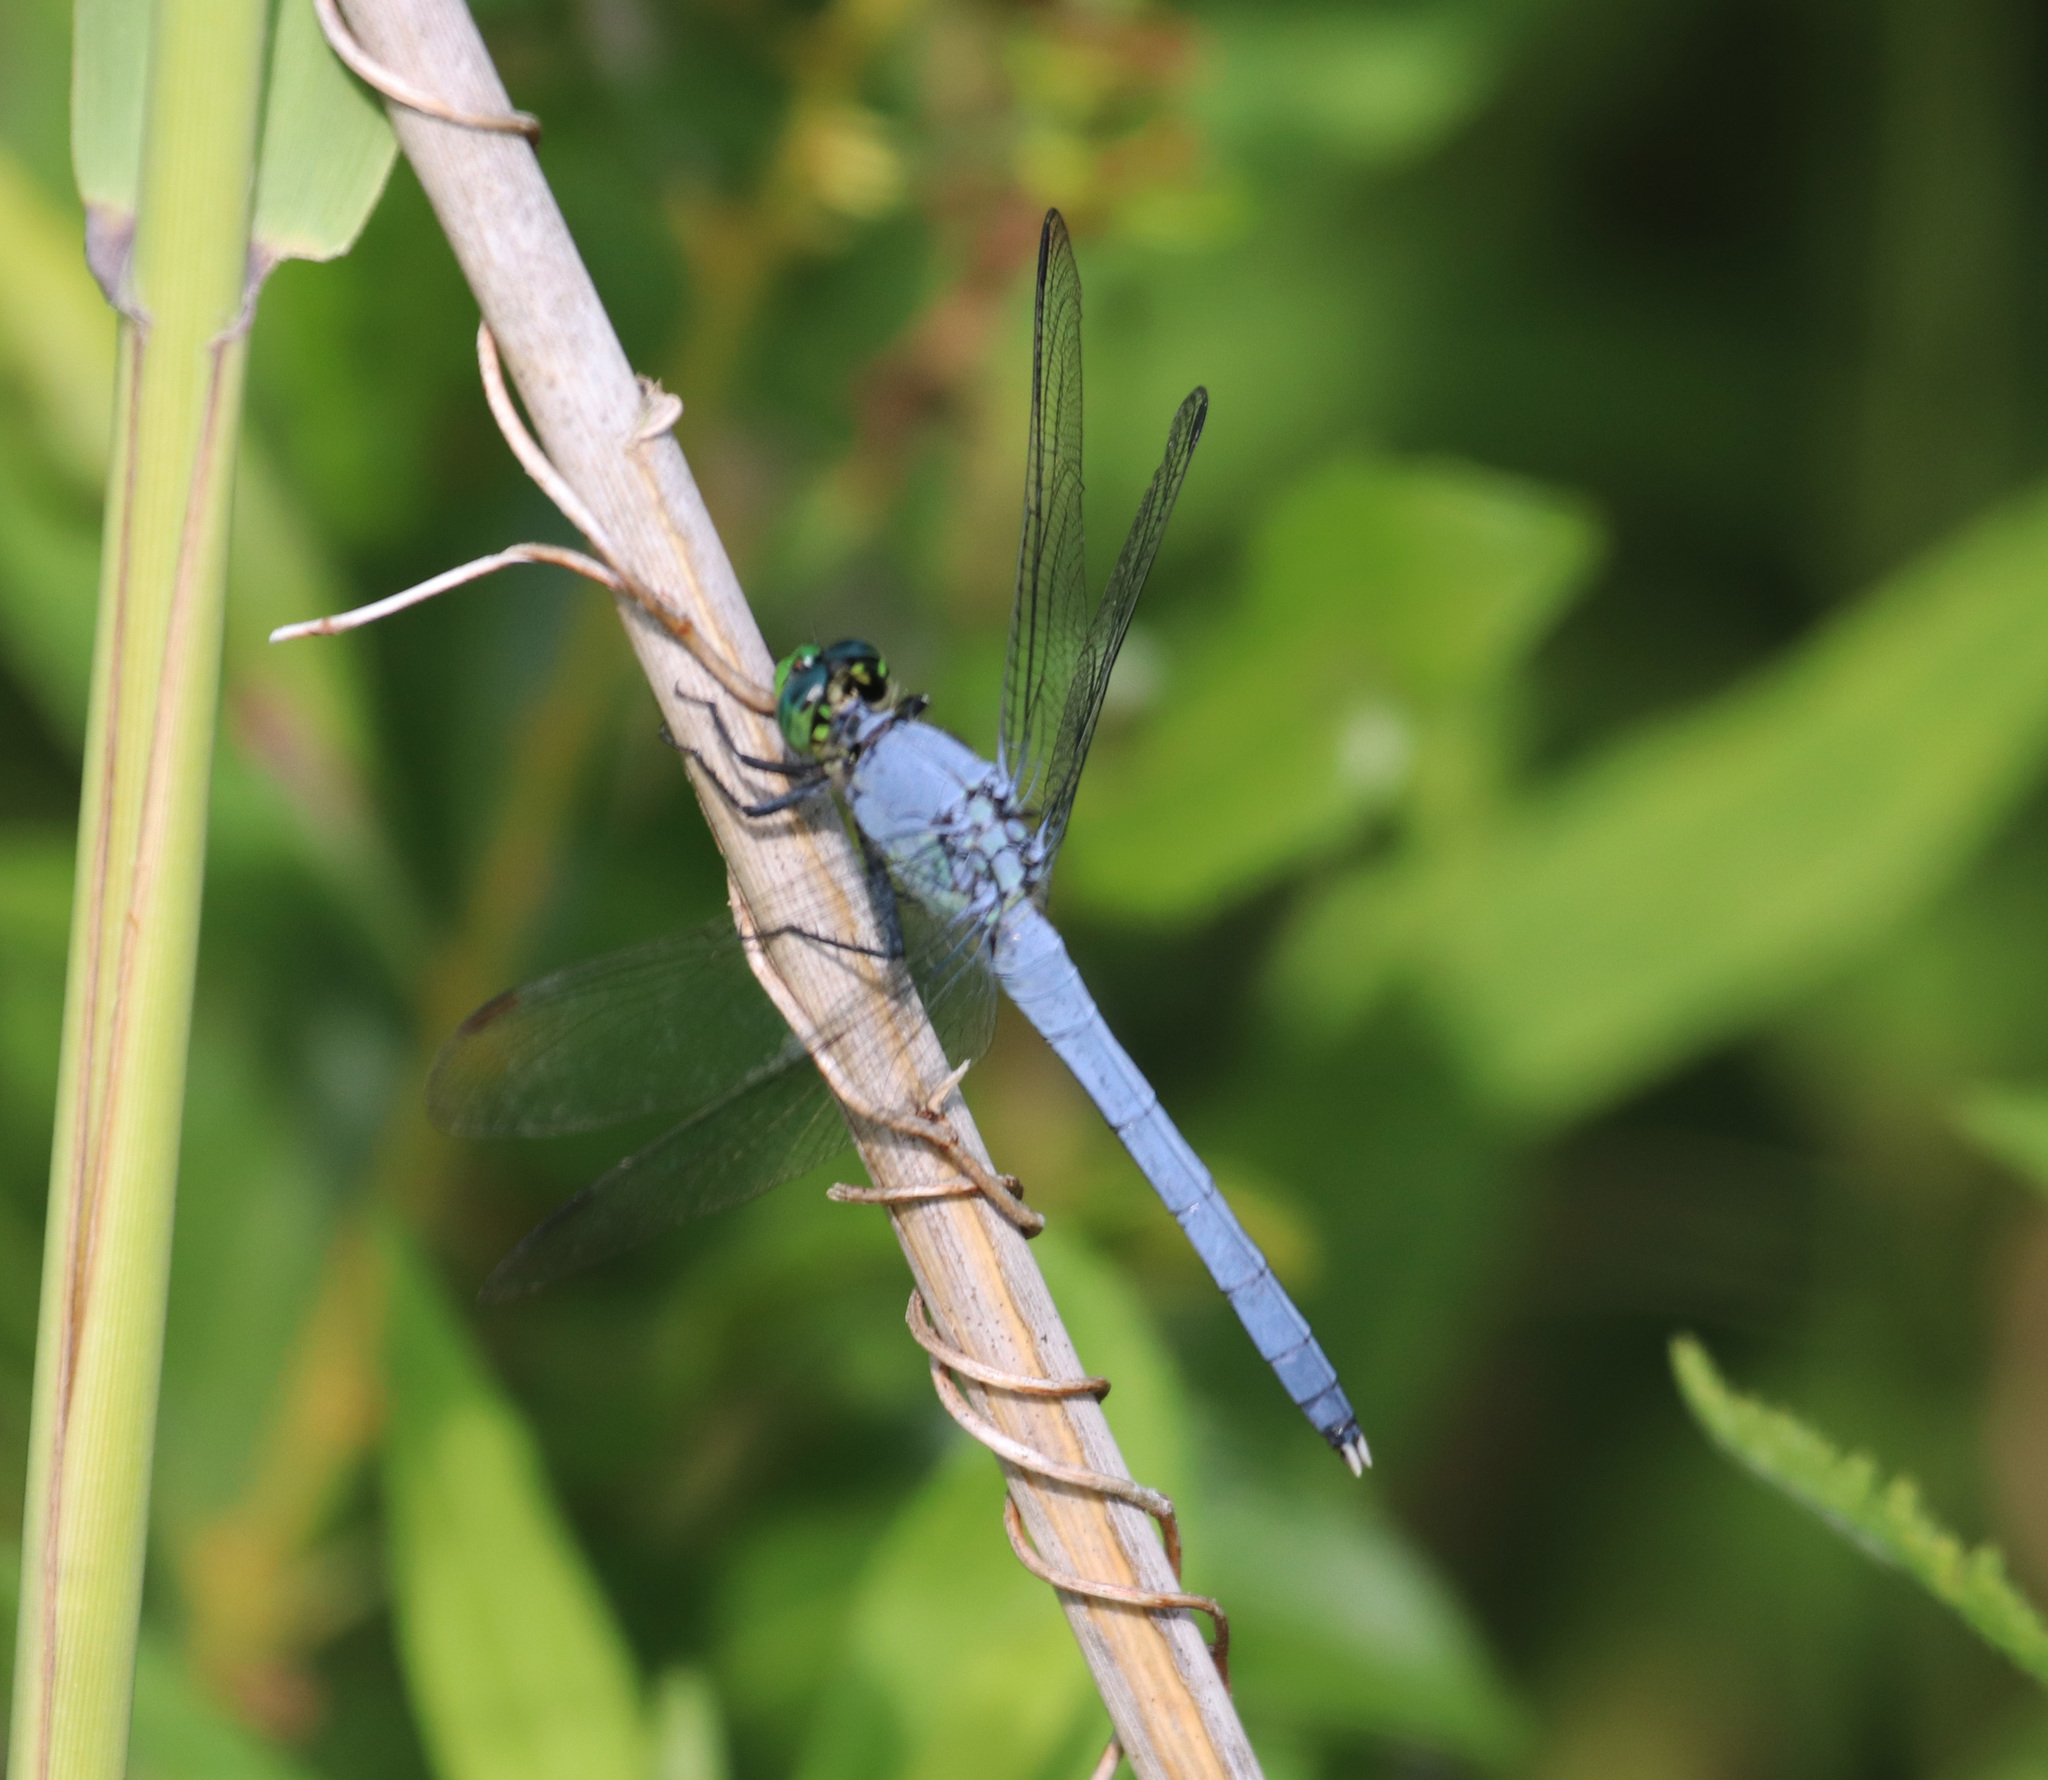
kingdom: Animalia
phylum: Arthropoda
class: Insecta
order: Odonata
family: Libellulidae
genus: Erythemis
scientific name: Erythemis simplicicollis
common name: Eastern pondhawk
